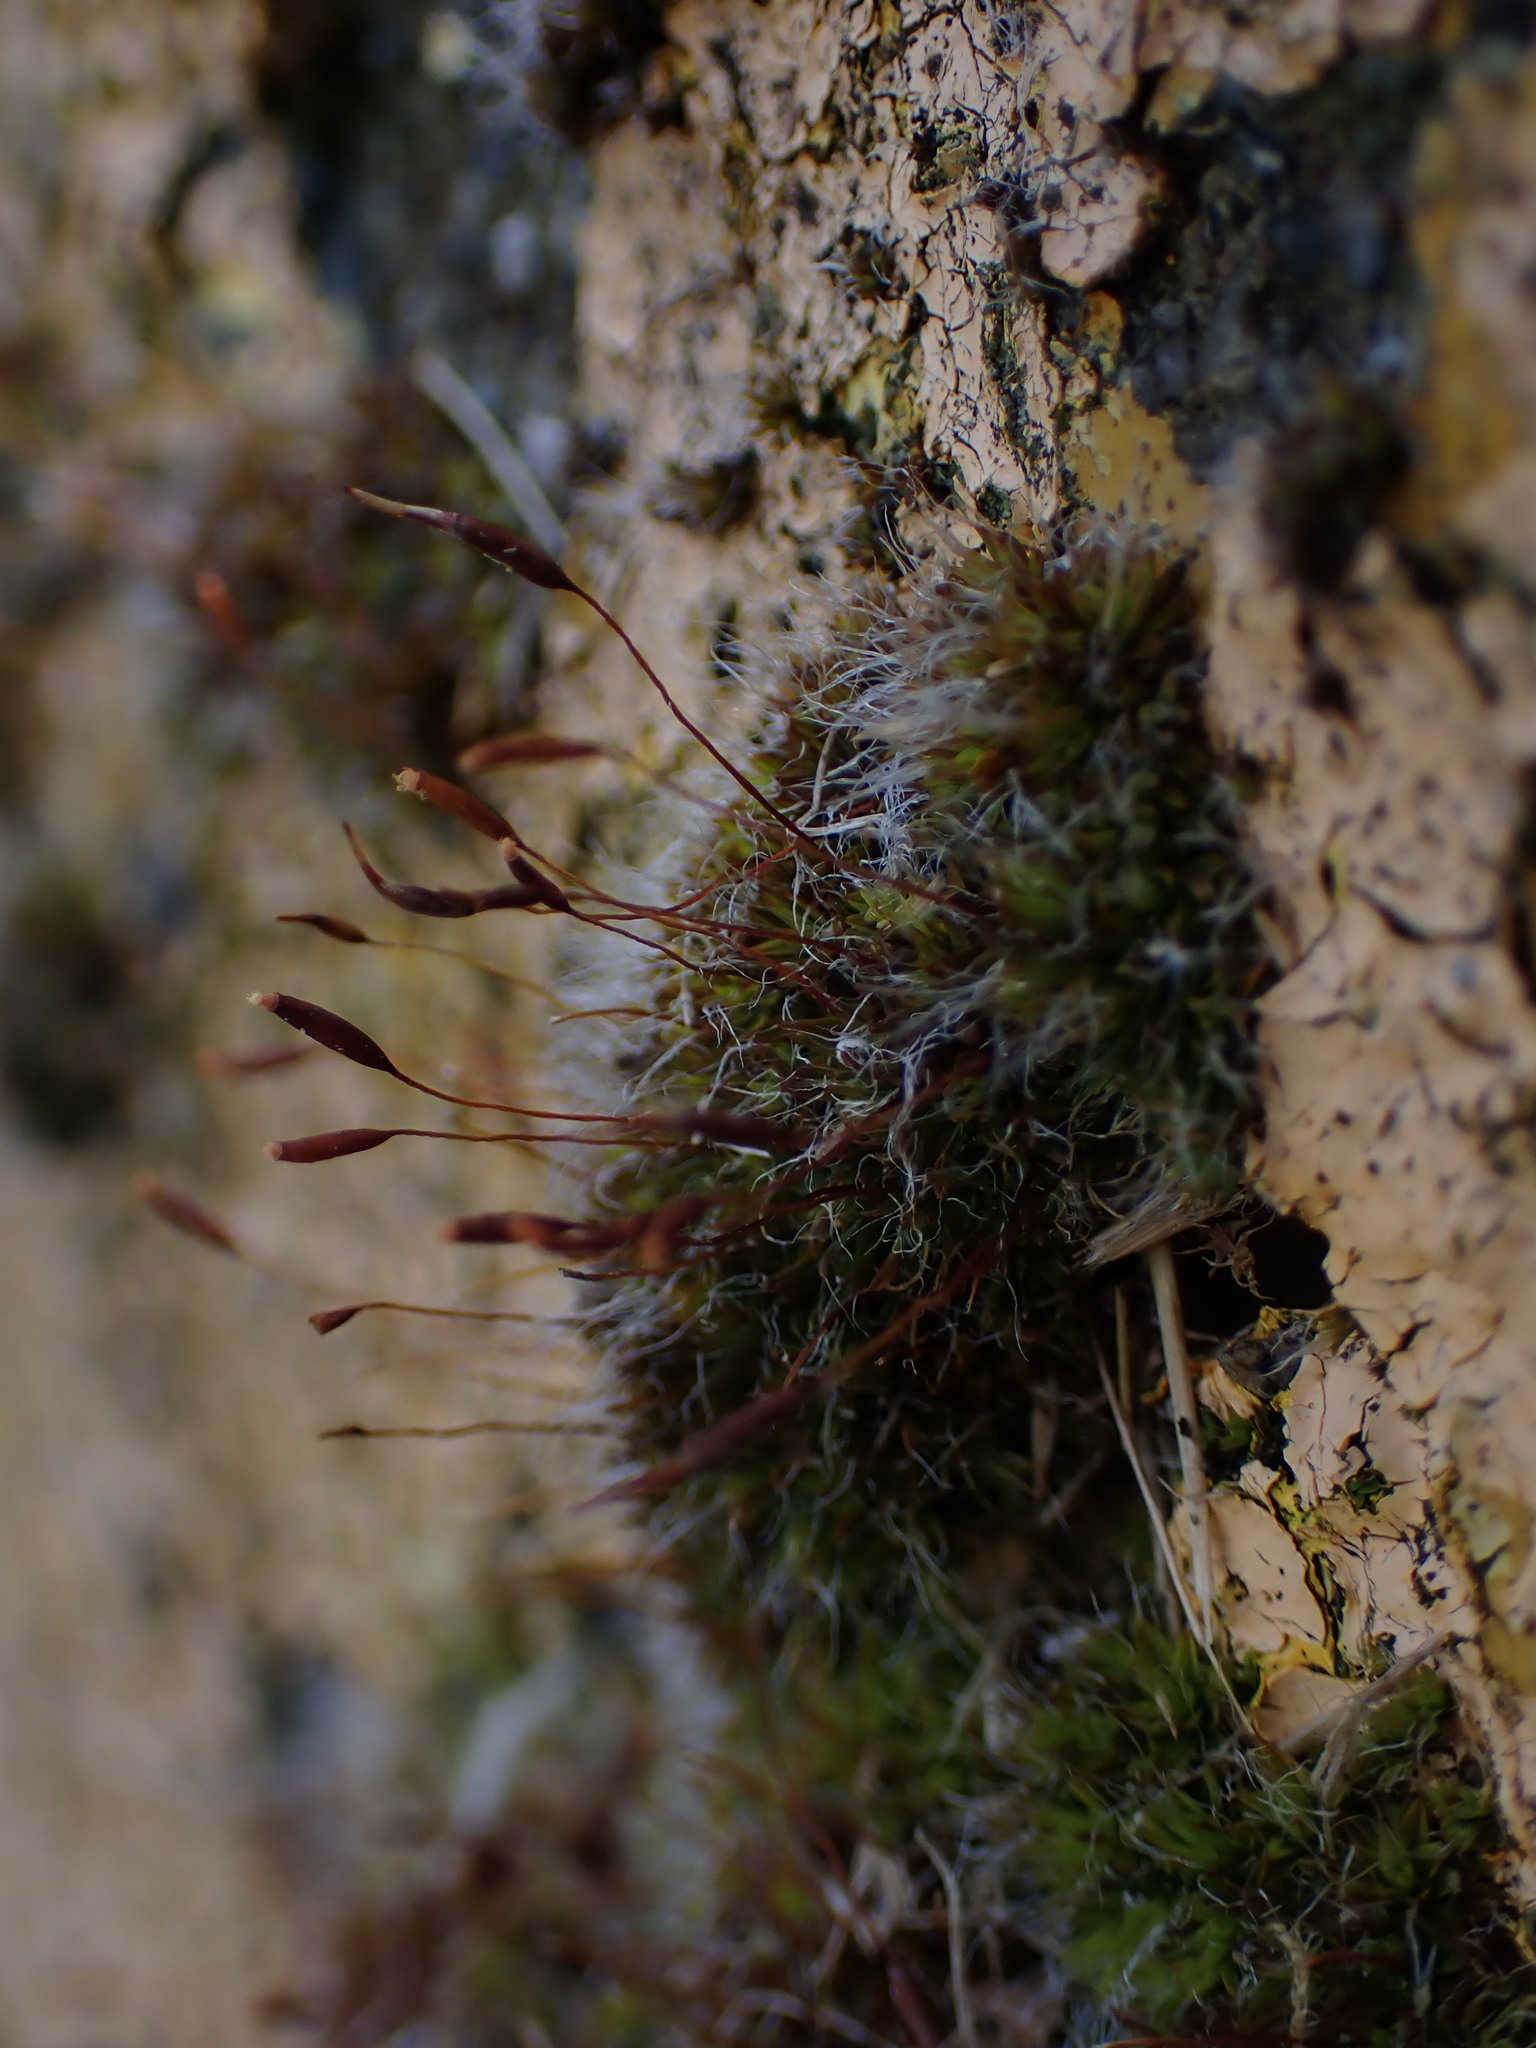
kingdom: Plantae
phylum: Bryophyta
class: Bryopsida
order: Pottiales
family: Pottiaceae
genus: Tortula
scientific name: Tortula muralis
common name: Wall screw-moss
